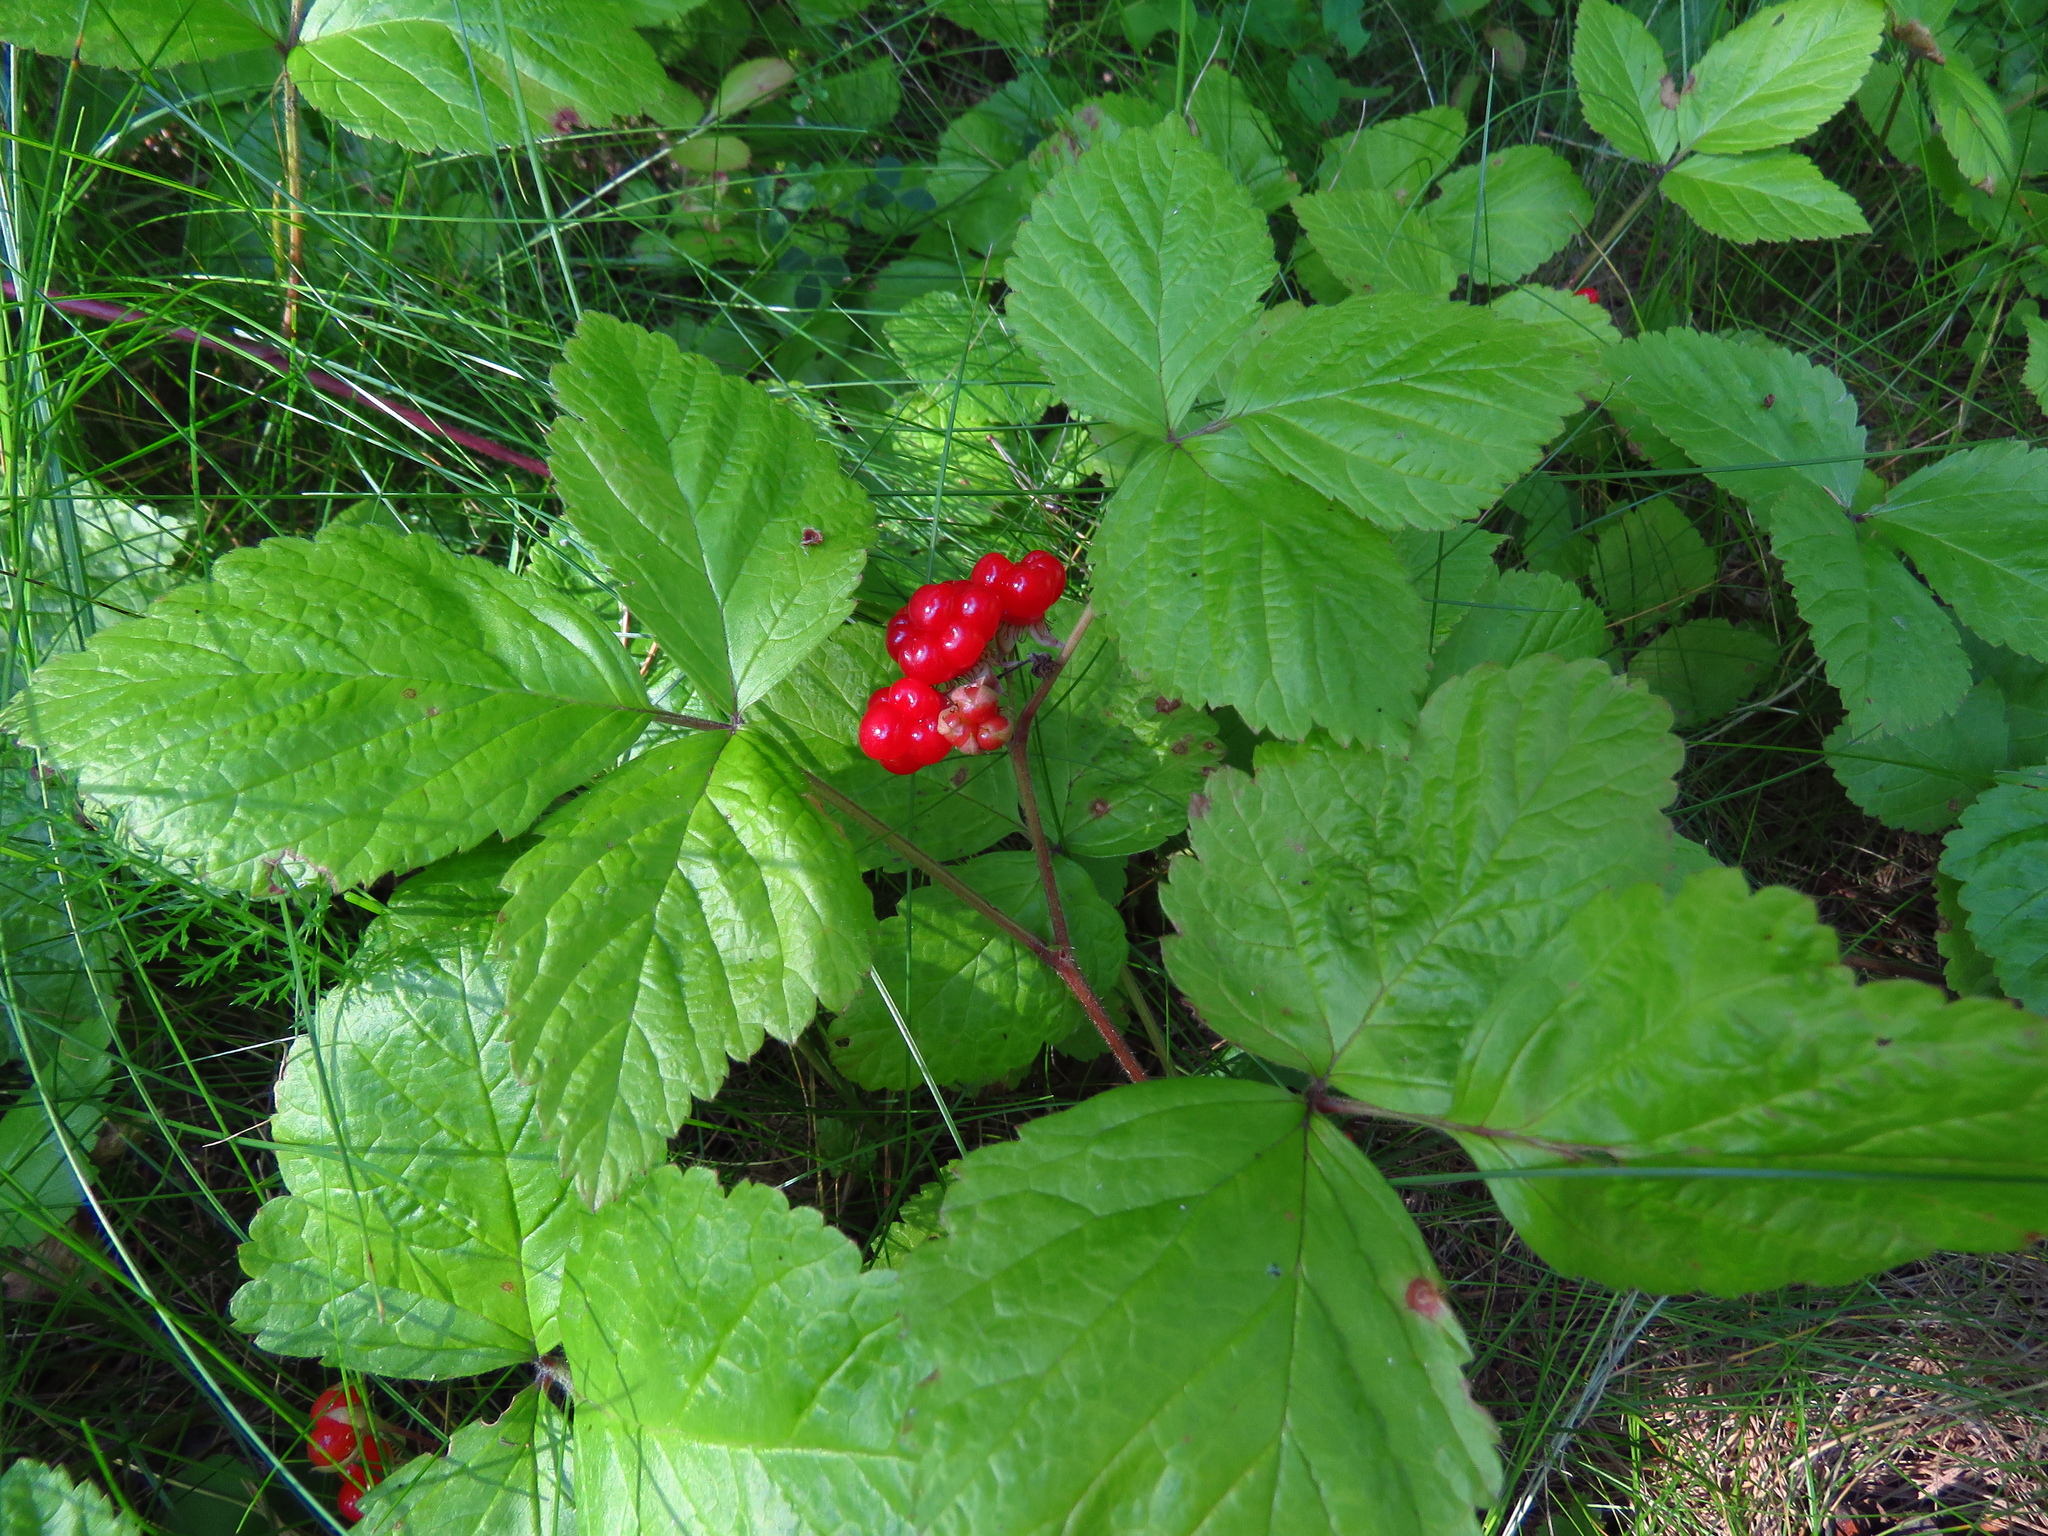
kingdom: Plantae
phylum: Tracheophyta
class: Magnoliopsida
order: Rosales
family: Rosaceae
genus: Rubus
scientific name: Rubus saxatilis
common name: Stone bramble
